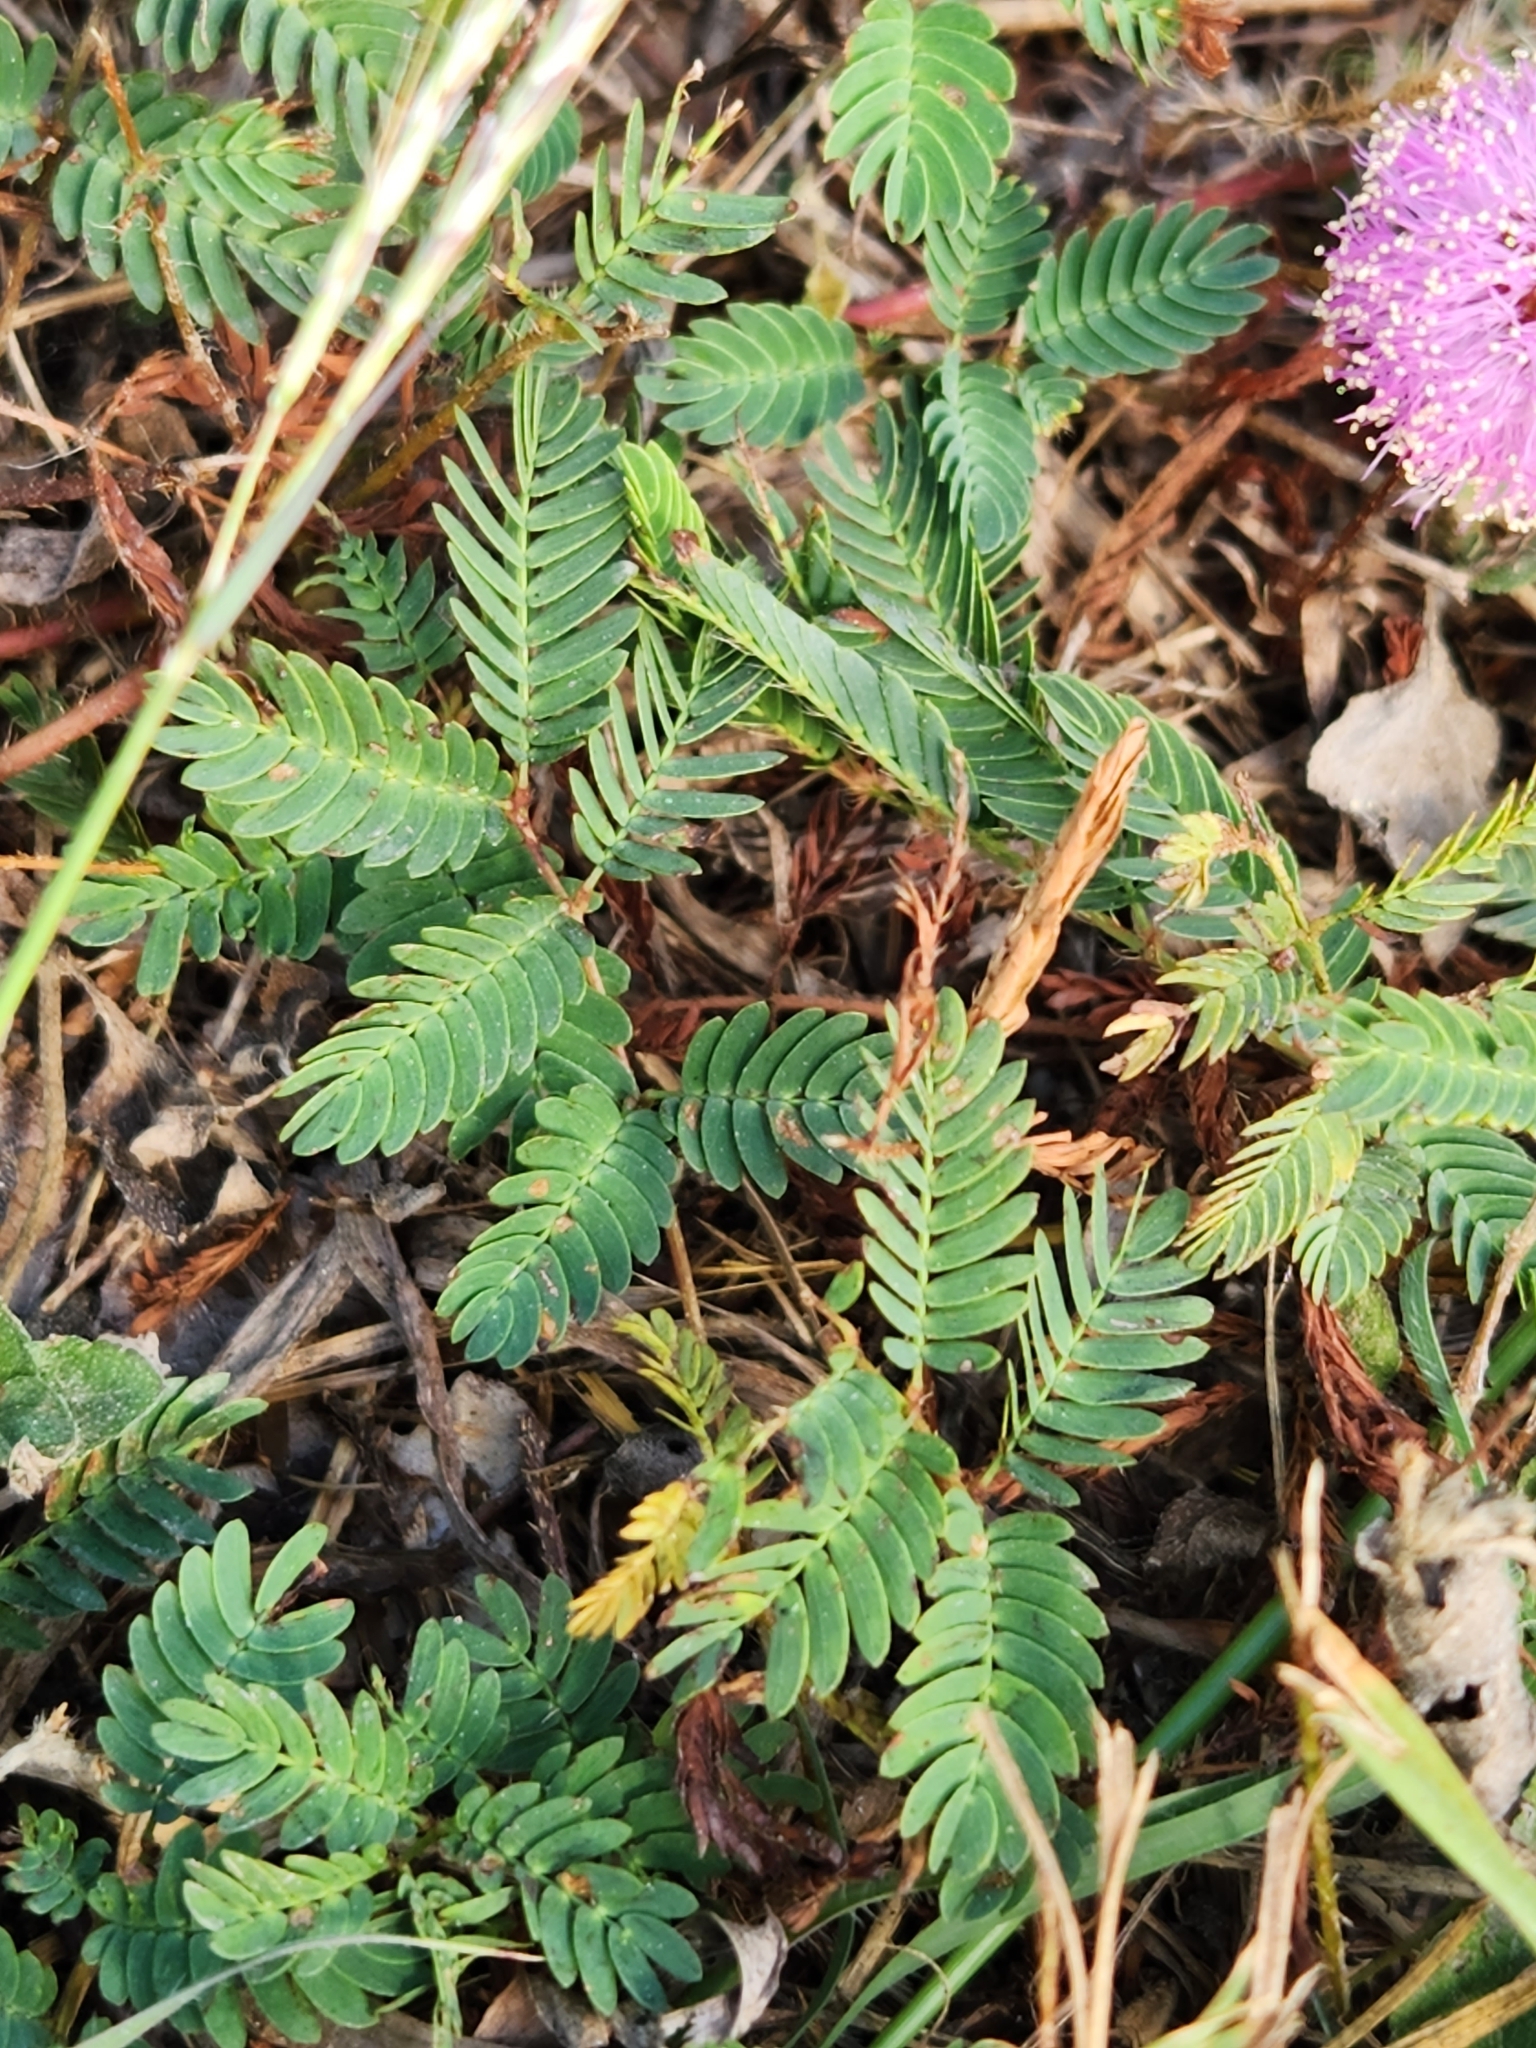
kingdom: Plantae
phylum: Tracheophyta
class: Magnoliopsida
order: Fabales
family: Fabaceae
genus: Mimosa
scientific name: Mimosa strigillosa
